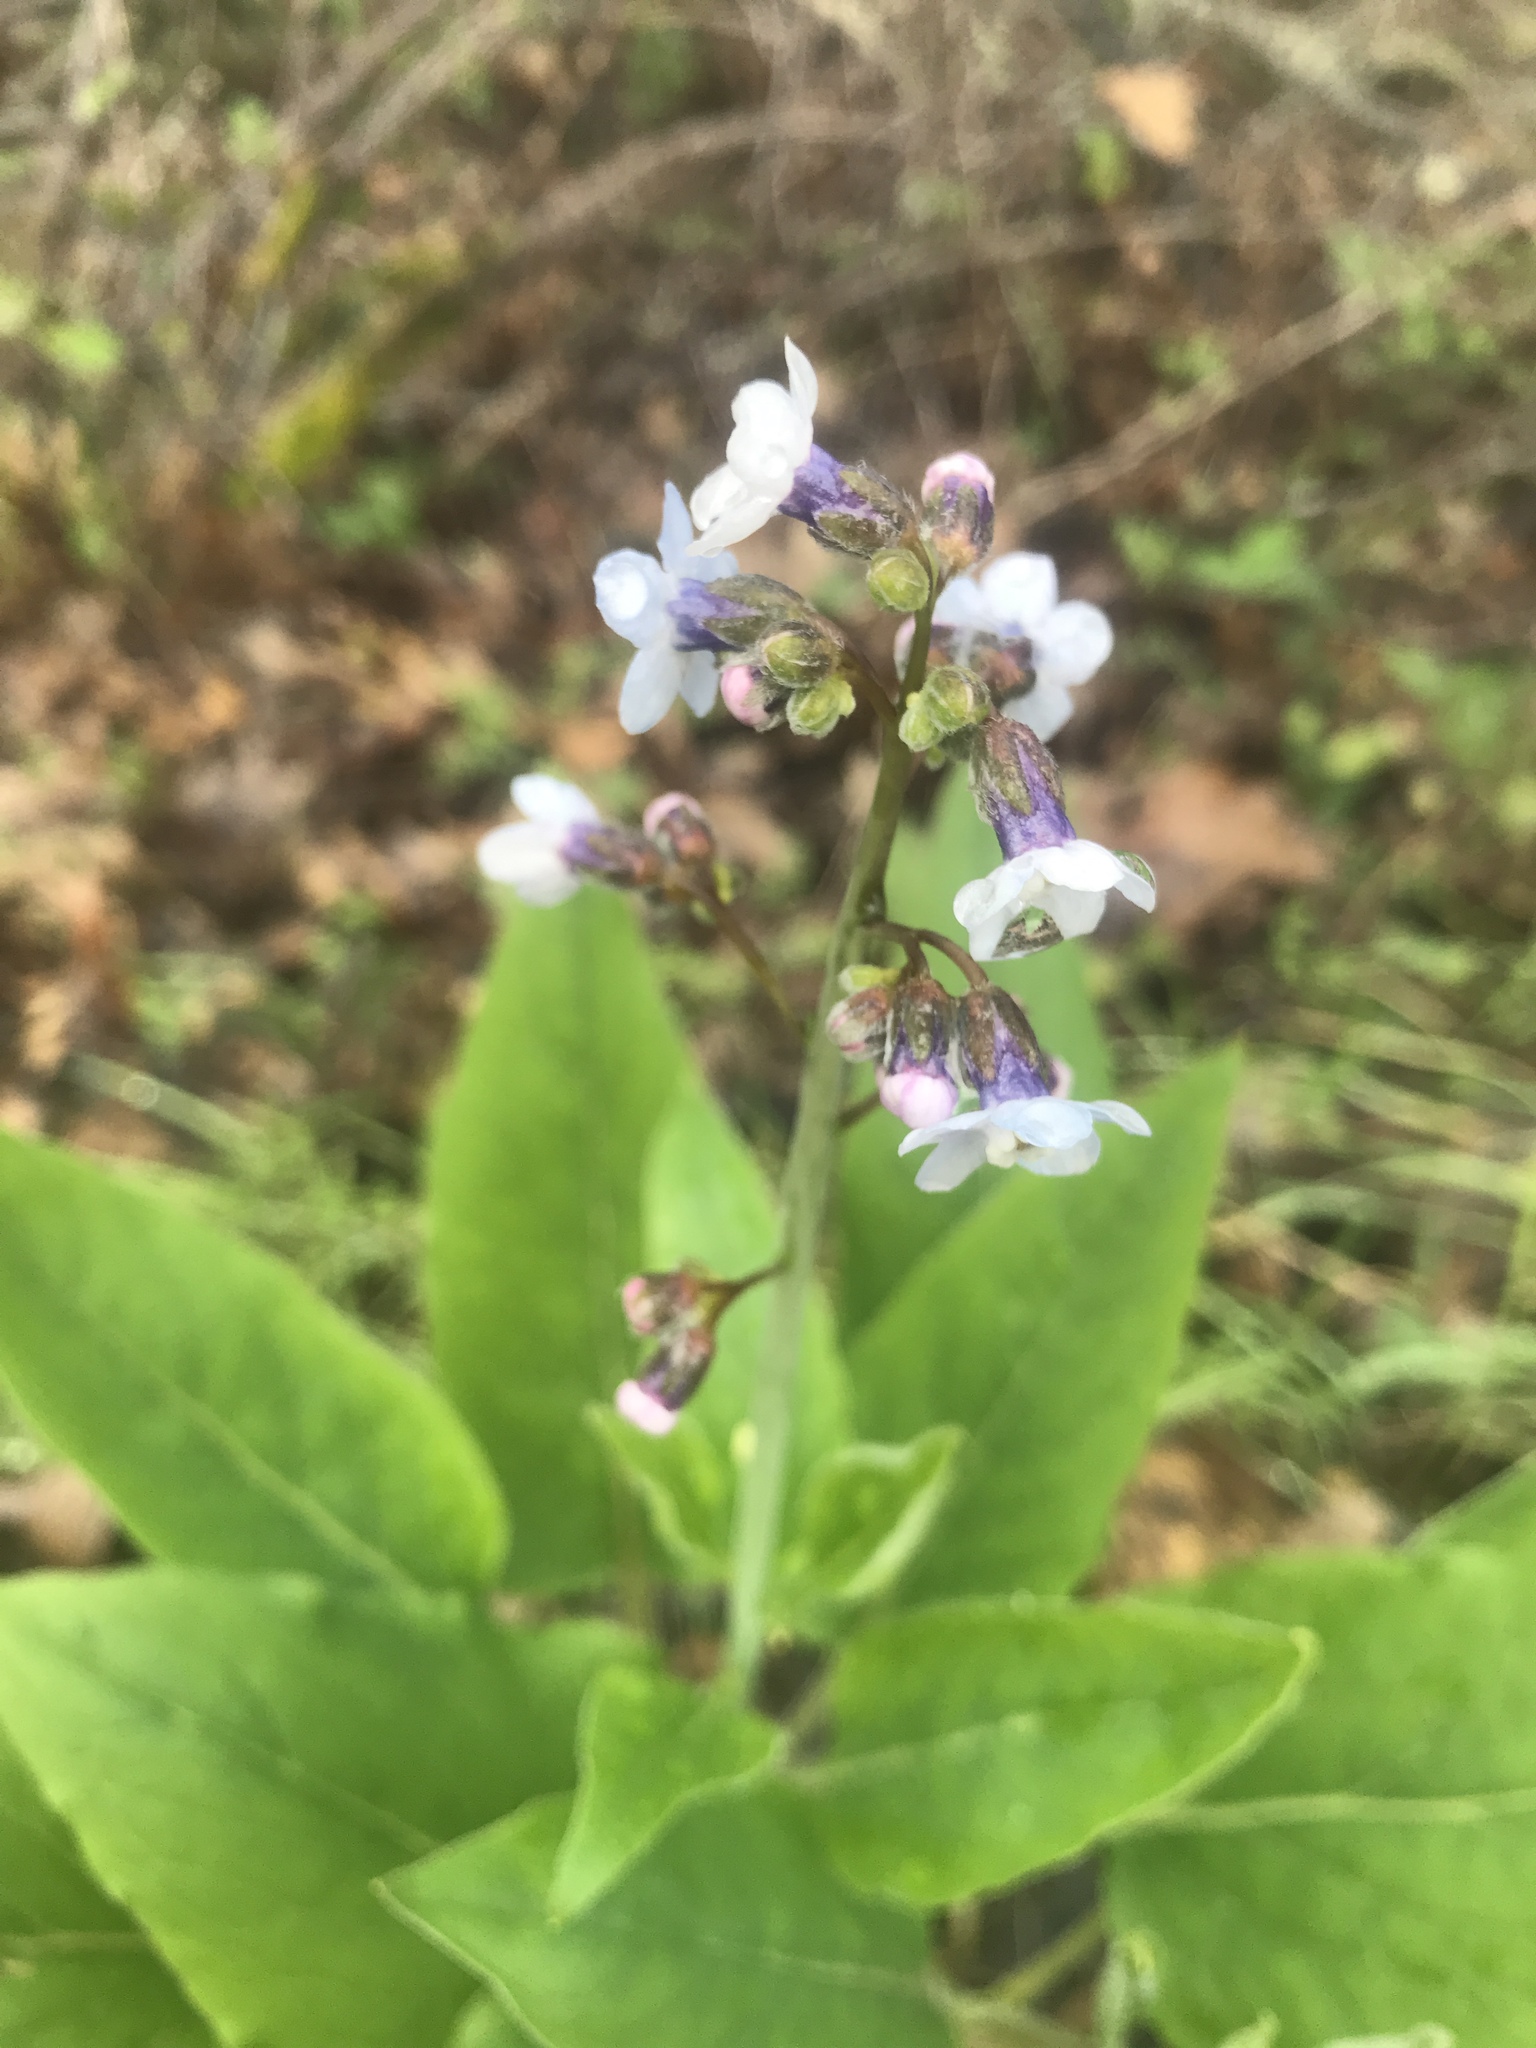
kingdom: Plantae
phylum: Tracheophyta
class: Magnoliopsida
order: Boraginales
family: Boraginaceae
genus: Adelinia
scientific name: Adelinia grande
